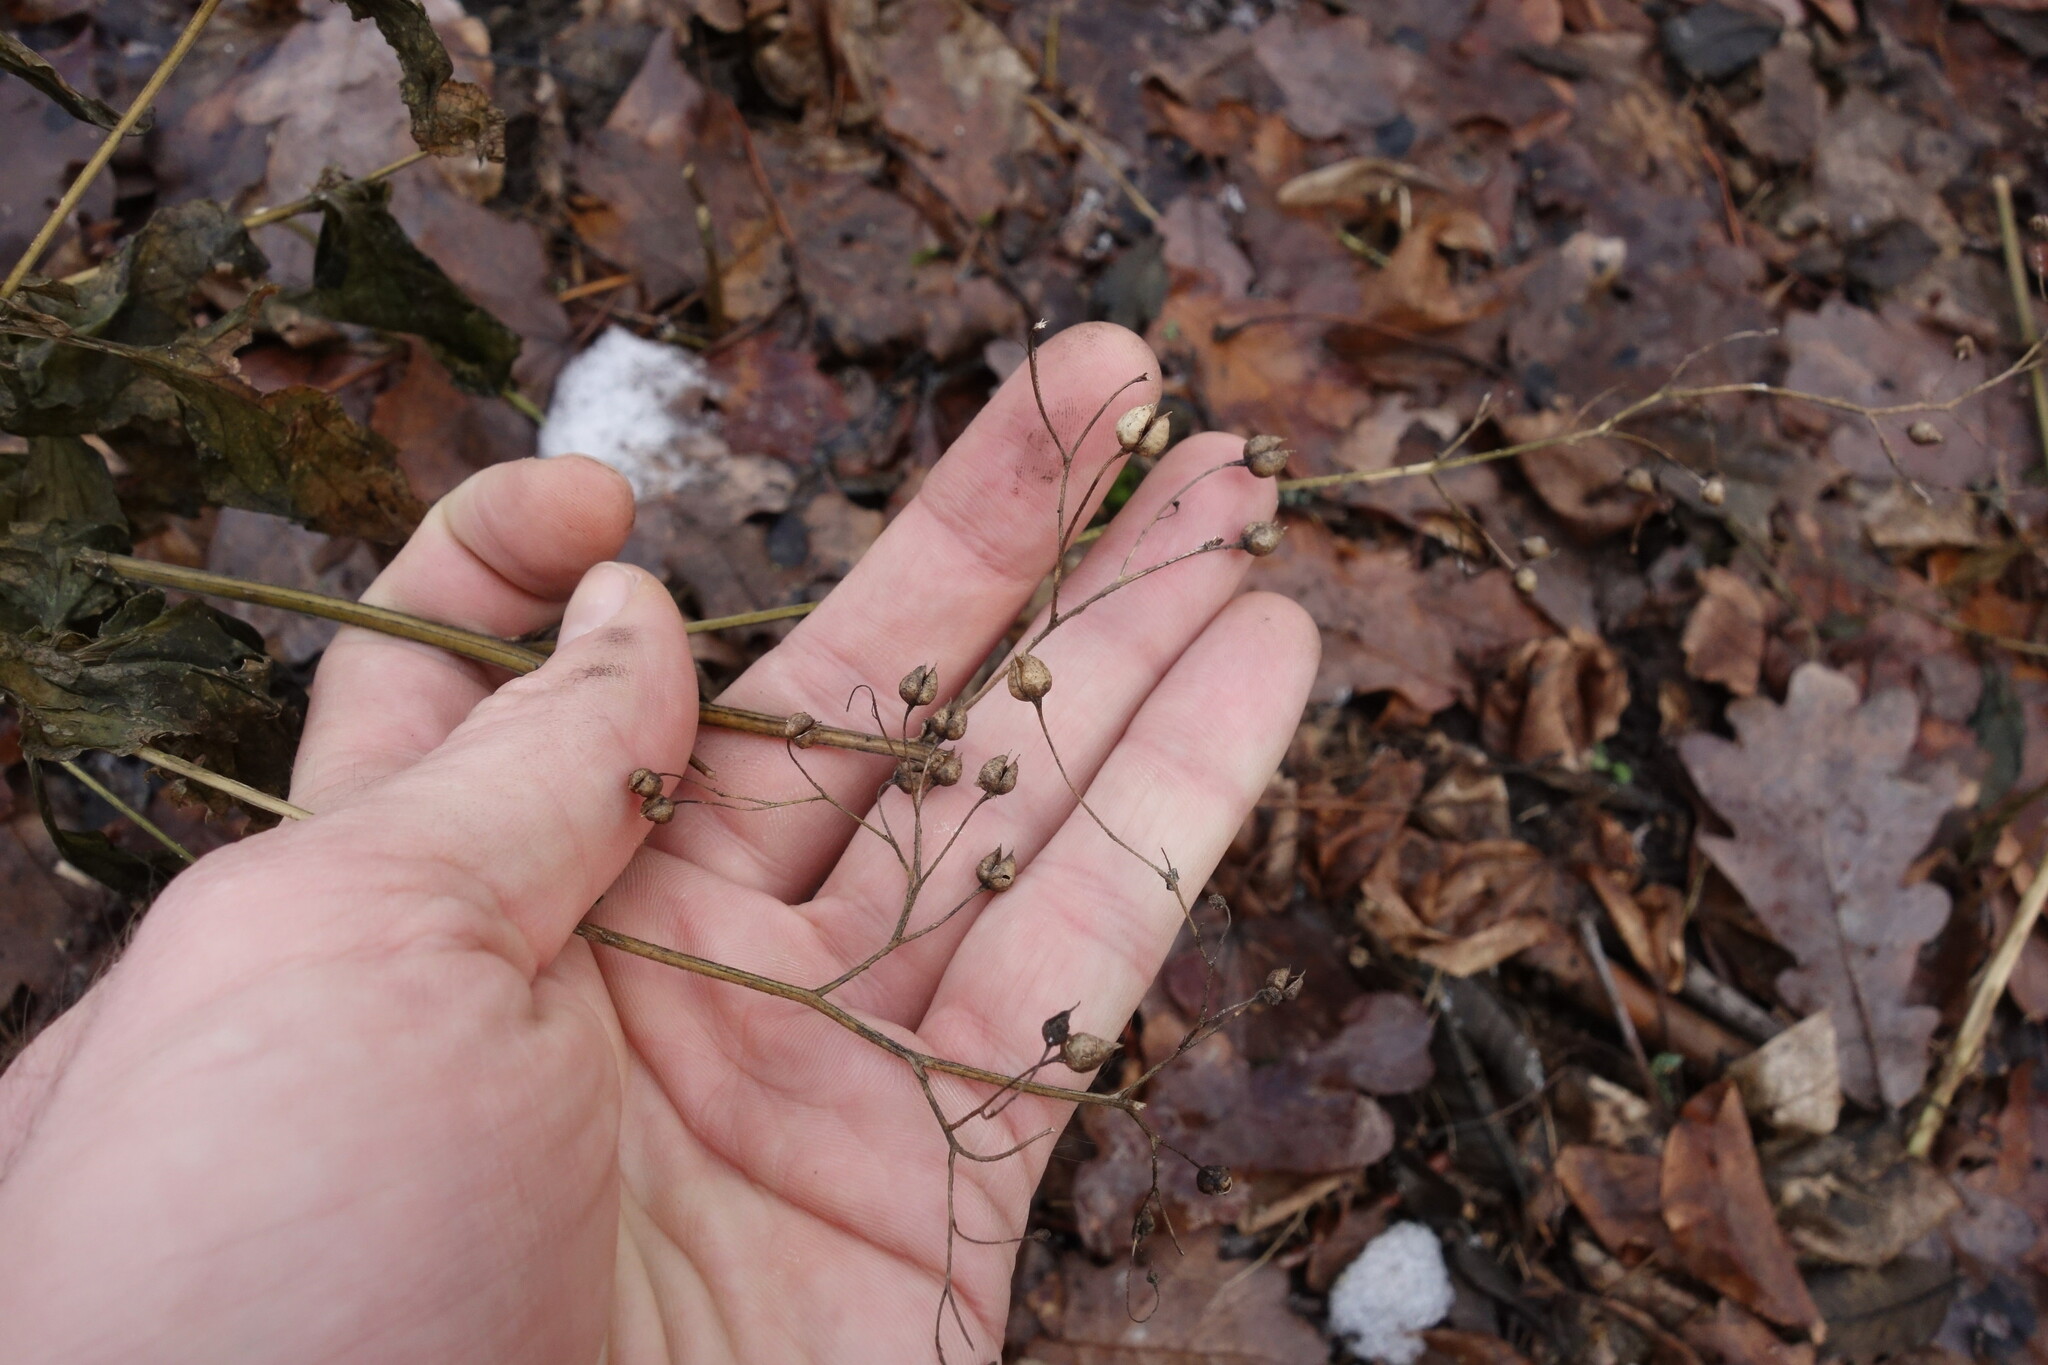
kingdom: Plantae
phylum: Tracheophyta
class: Magnoliopsida
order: Lamiales
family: Scrophulariaceae
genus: Scrophularia
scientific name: Scrophularia nodosa
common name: Common figwort
